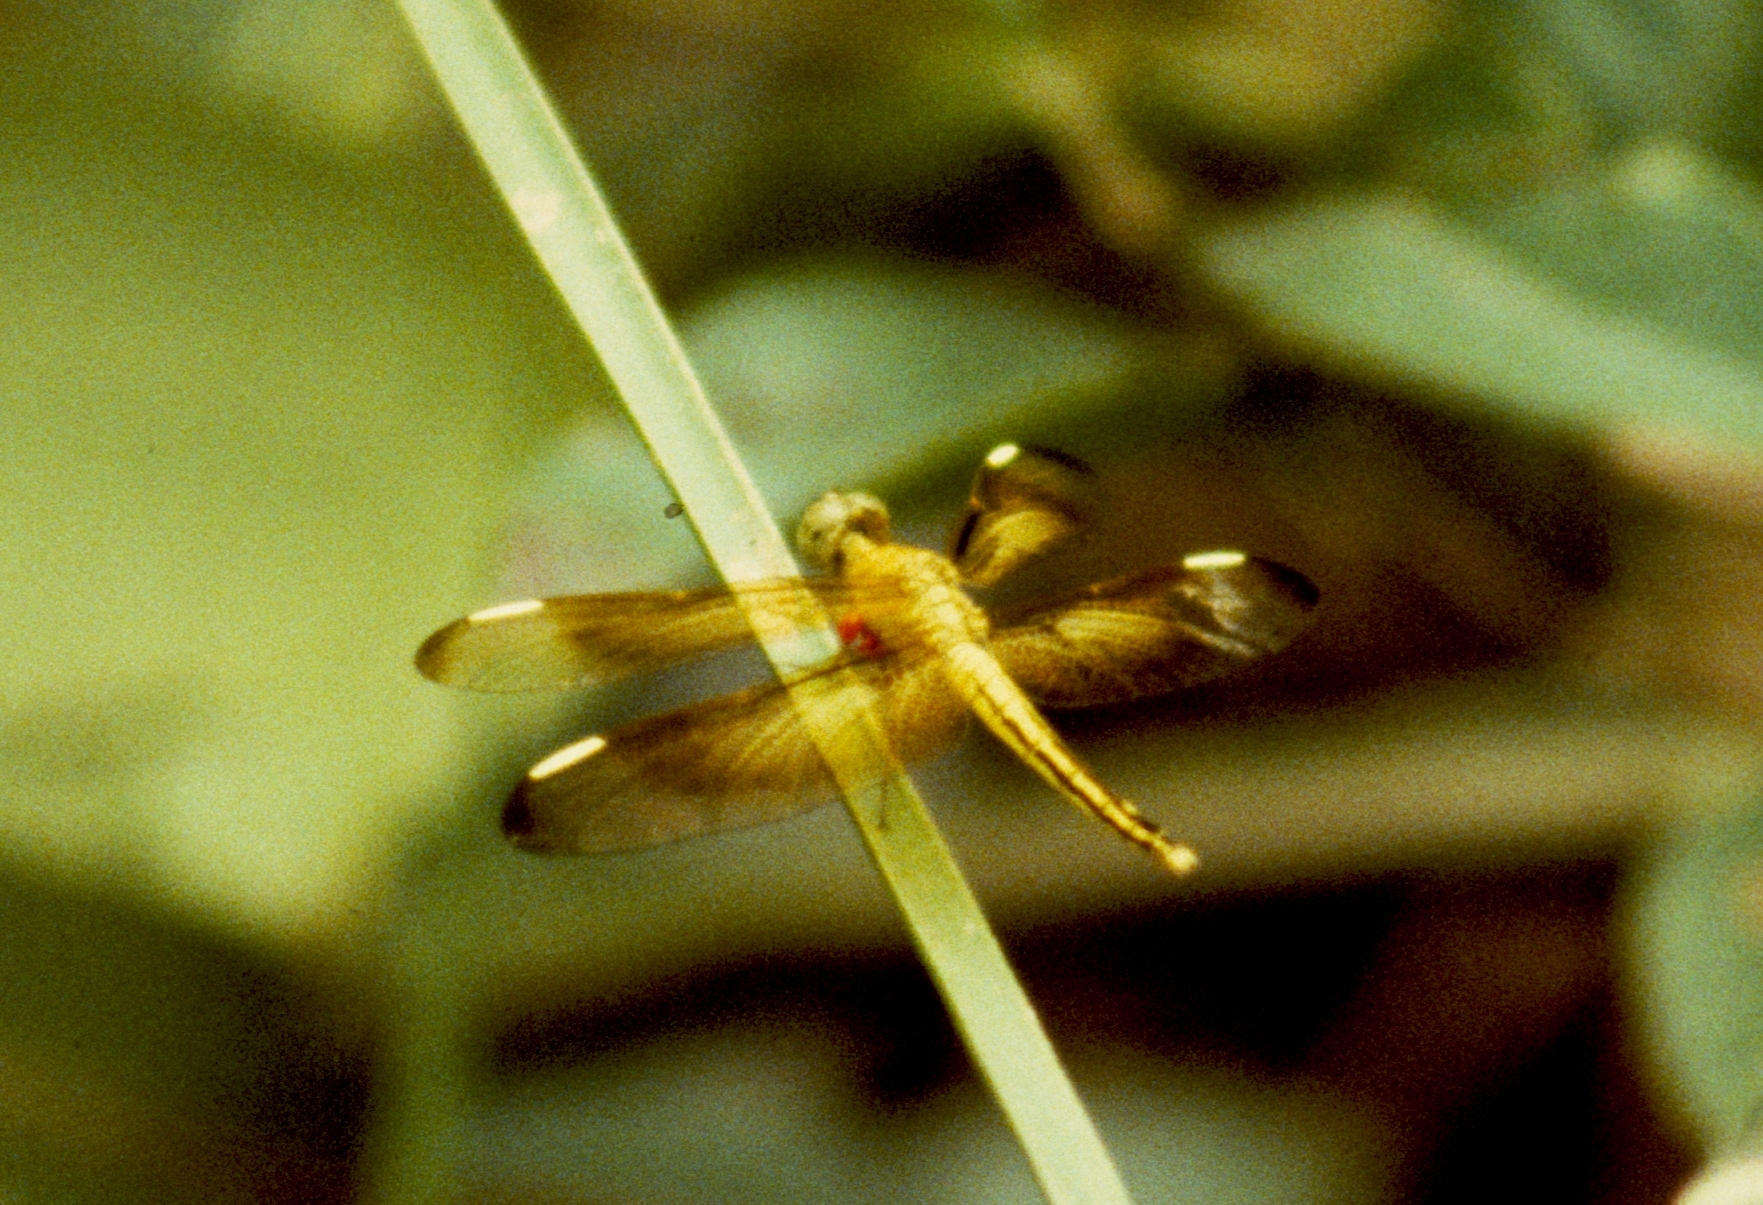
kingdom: Animalia
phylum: Arthropoda
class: Insecta
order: Odonata
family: Libellulidae
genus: Neurothemis
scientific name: Neurothemis stigmatizans
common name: Painted grasshawk
